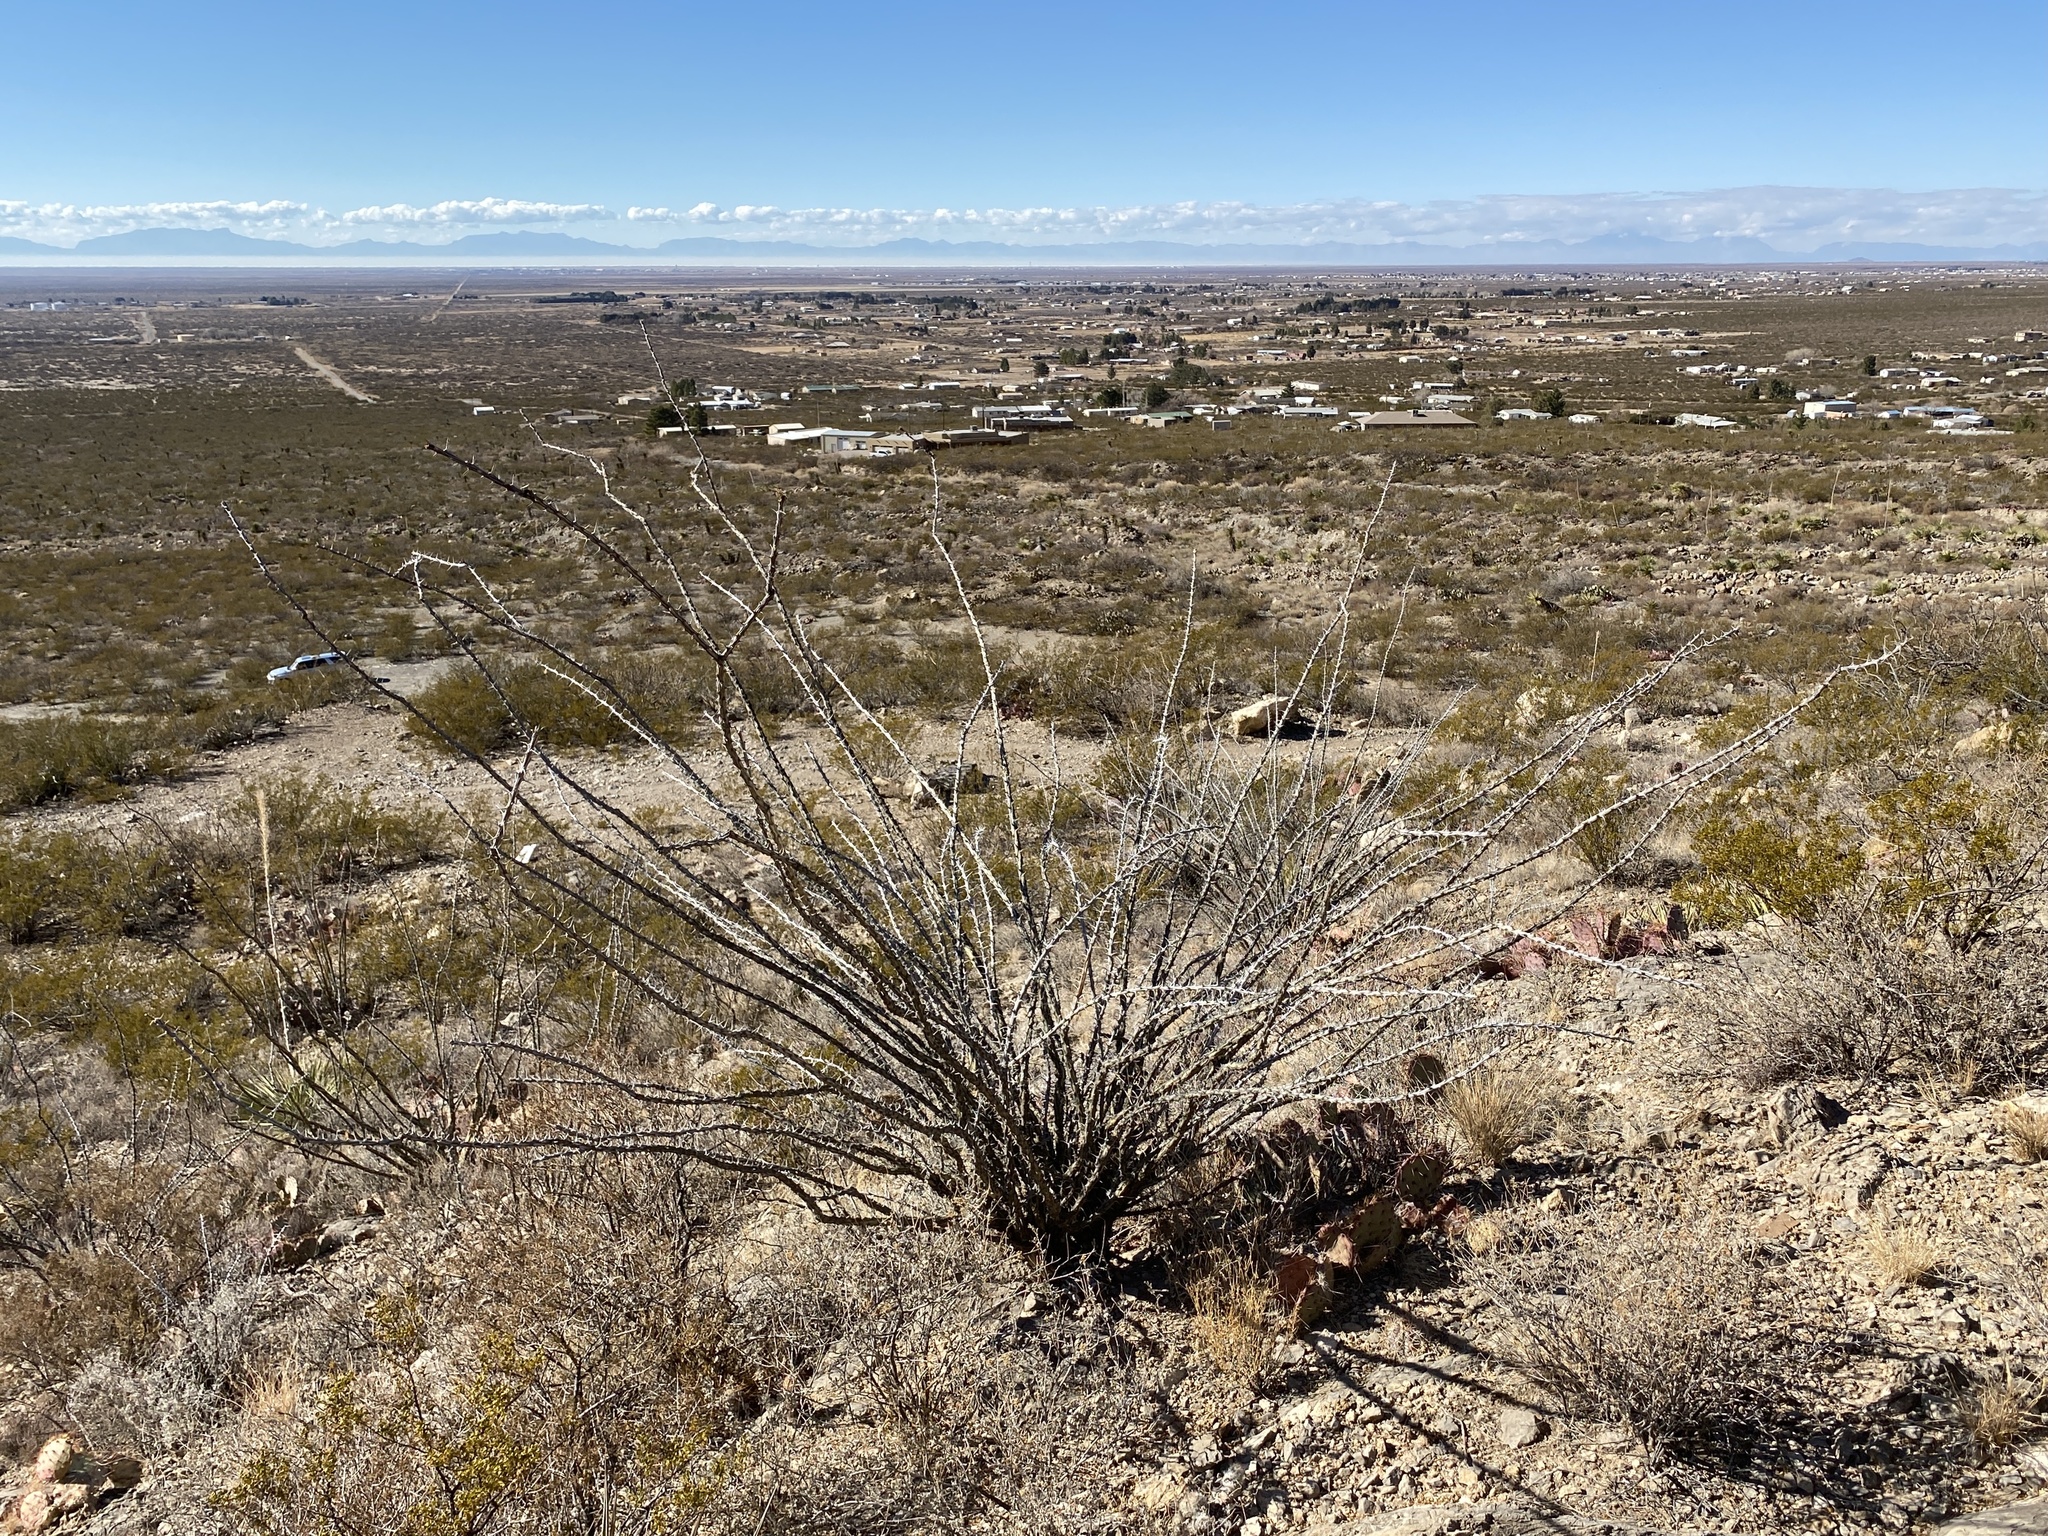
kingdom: Plantae
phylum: Tracheophyta
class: Magnoliopsida
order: Ericales
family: Fouquieriaceae
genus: Fouquieria
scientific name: Fouquieria splendens
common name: Vine-cactus
